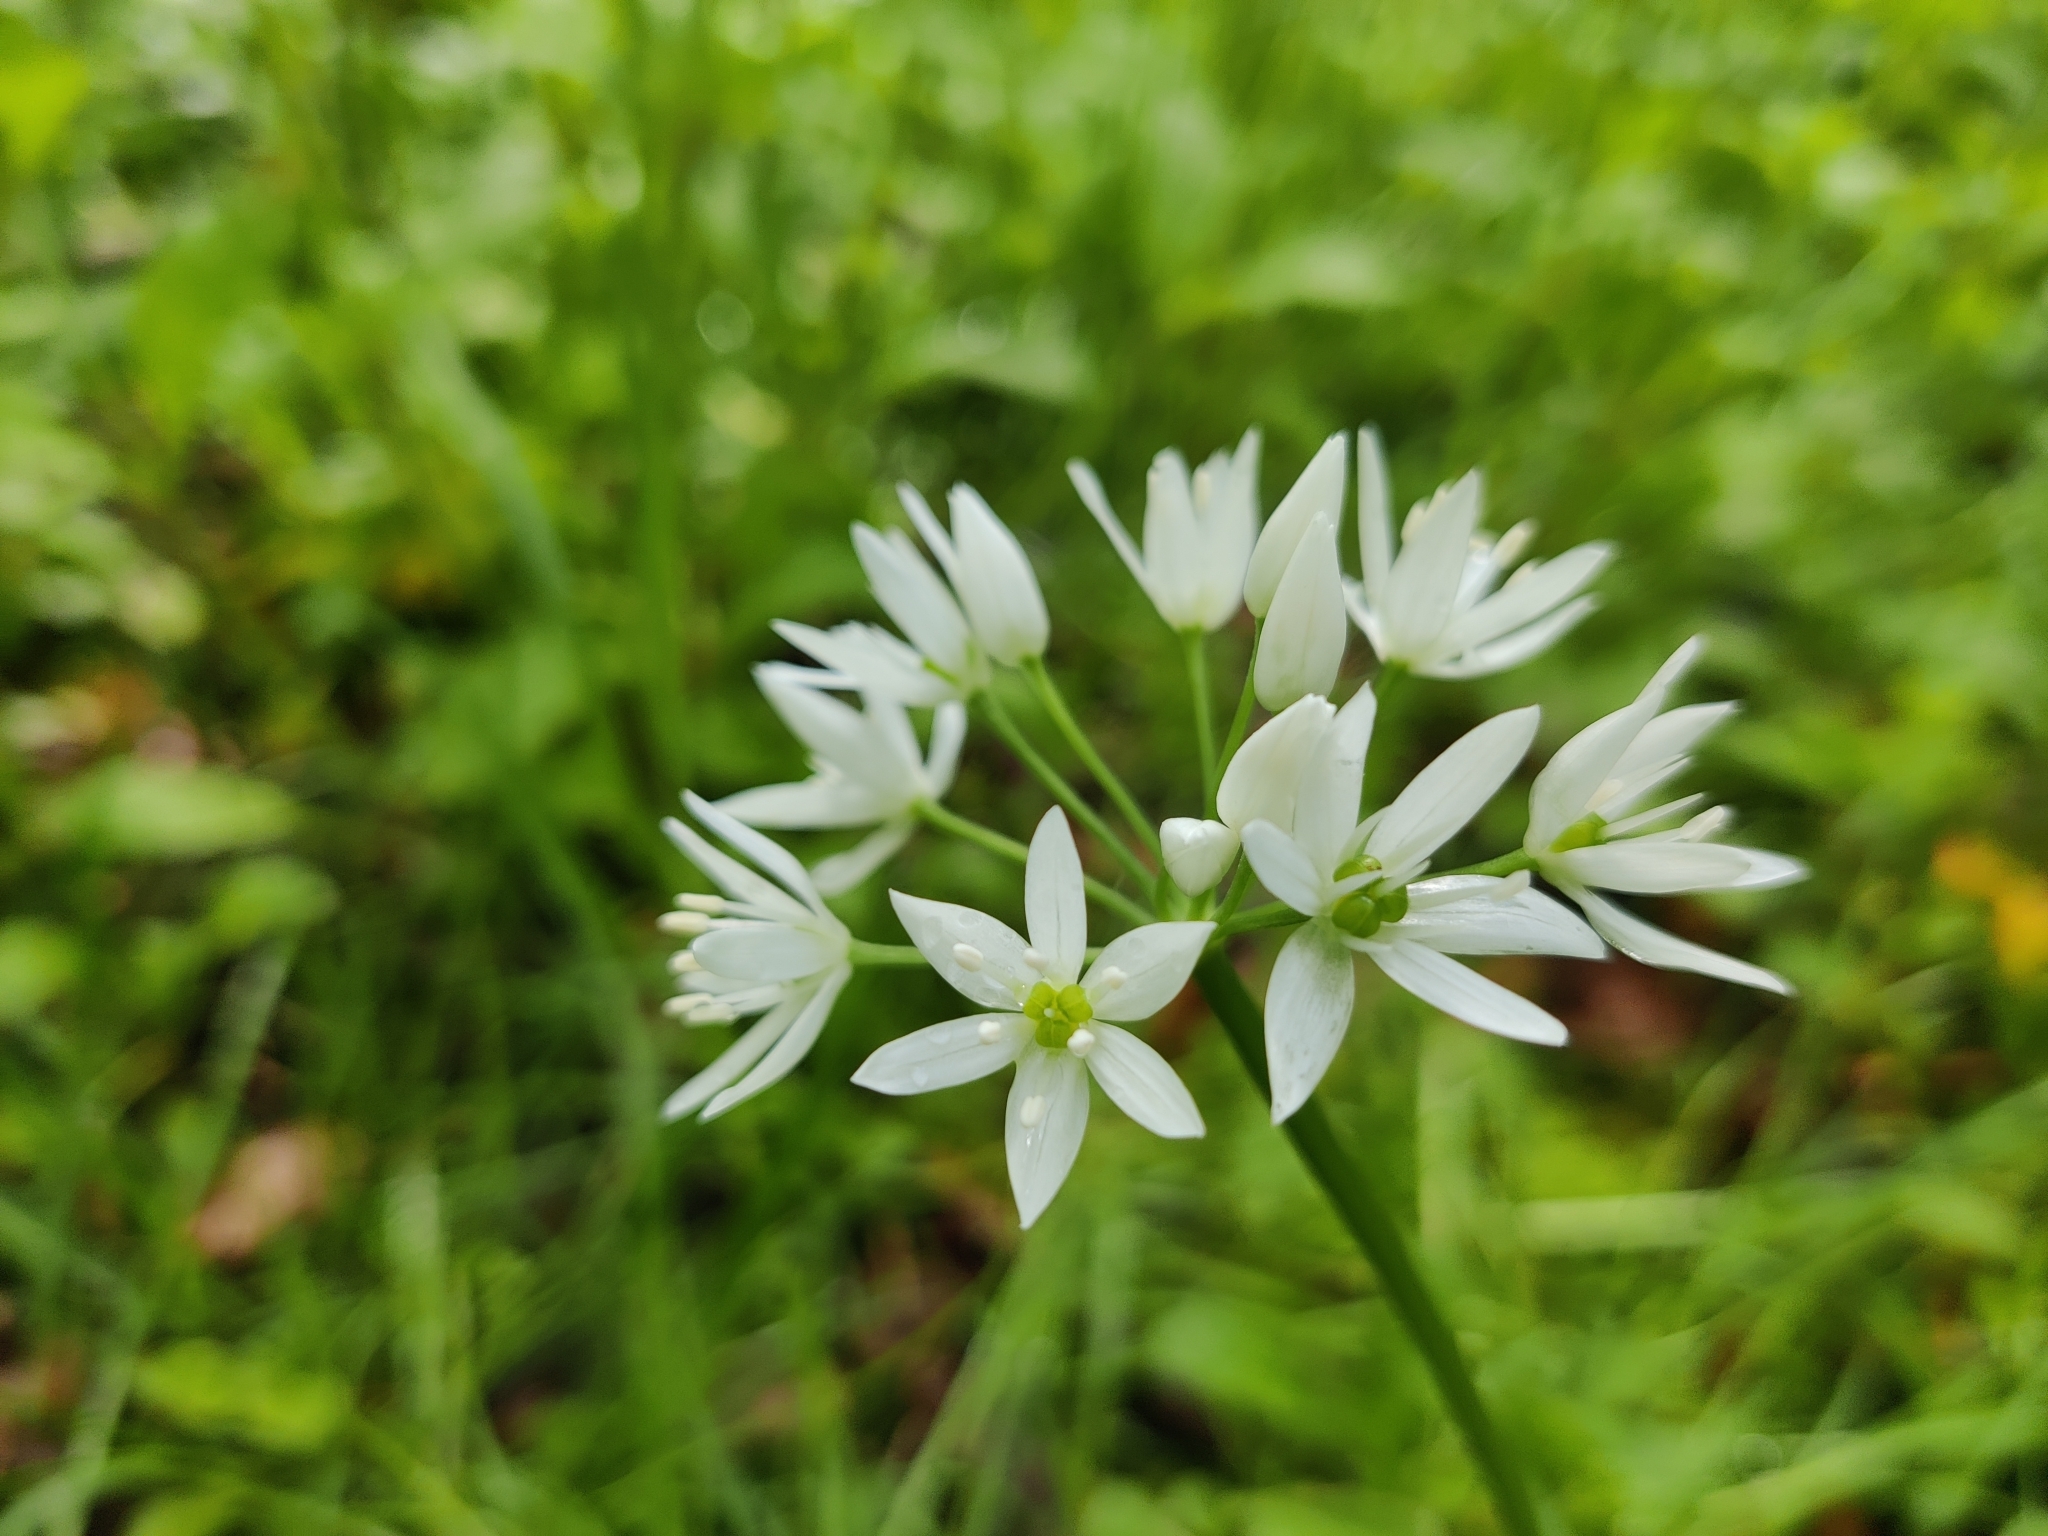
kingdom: Plantae
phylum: Tracheophyta
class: Liliopsida
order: Asparagales
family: Amaryllidaceae
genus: Allium
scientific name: Allium ursinum
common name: Ramsons
